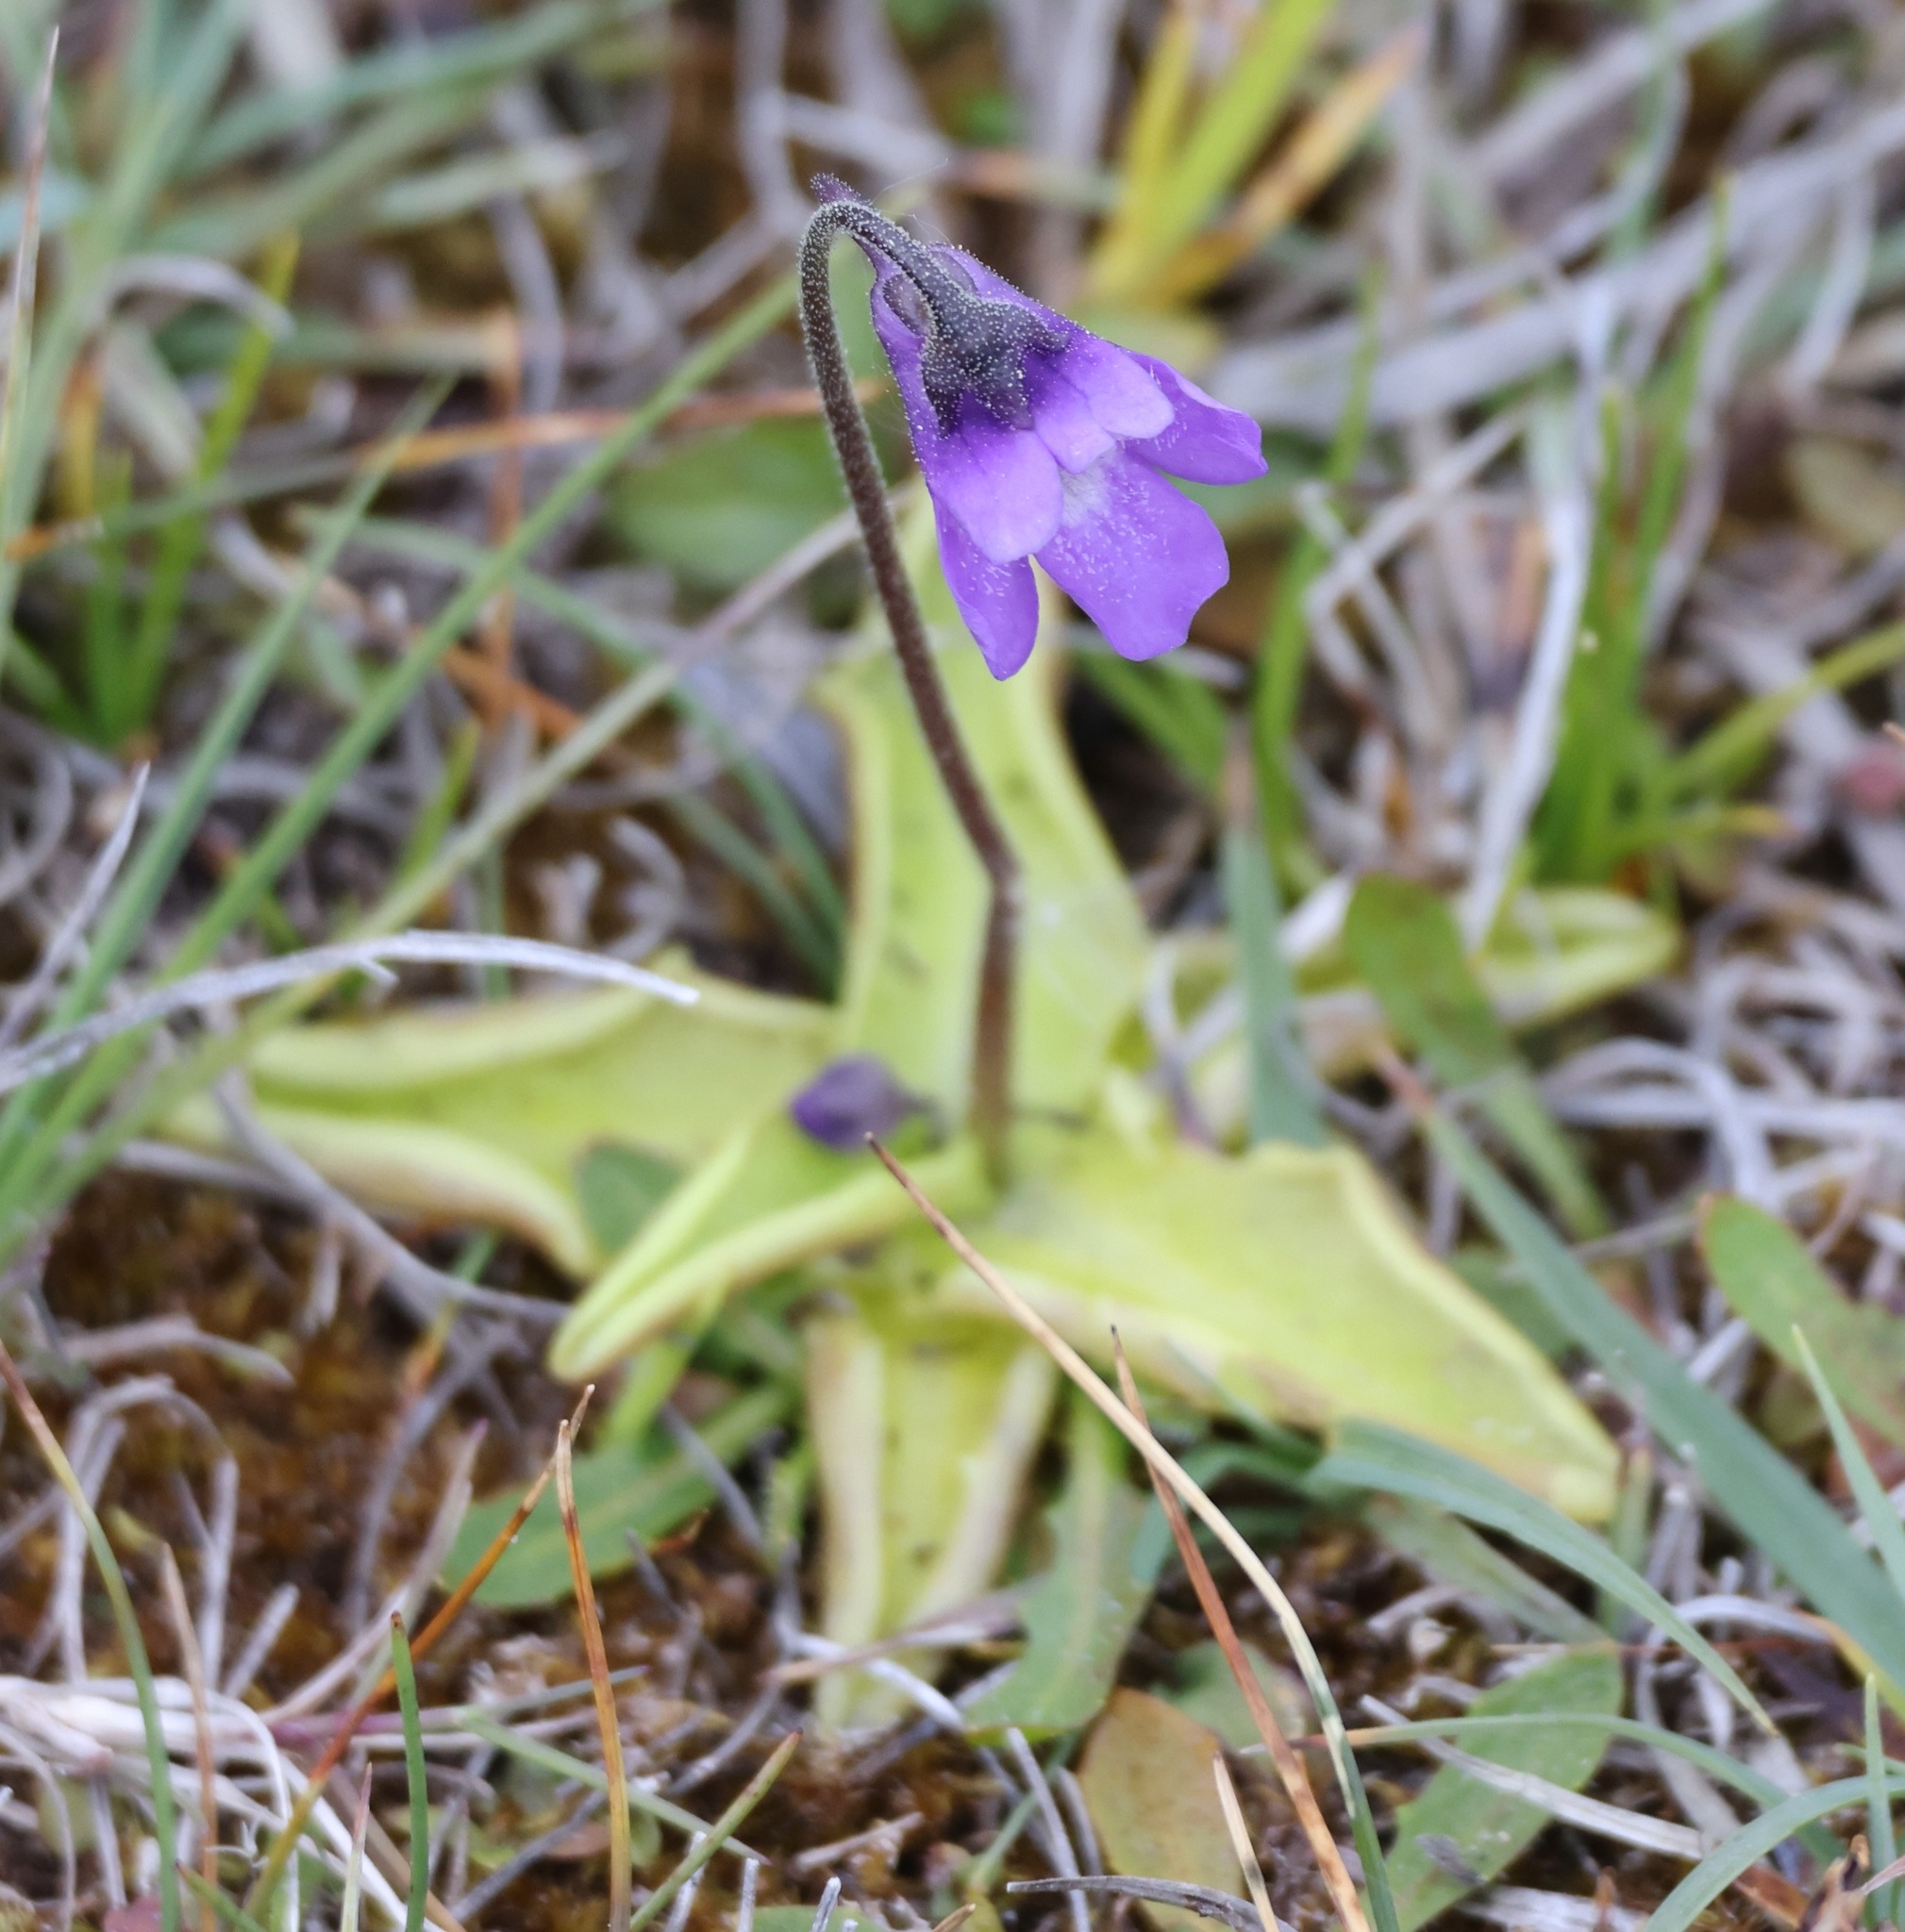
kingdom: Plantae
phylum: Tracheophyta
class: Magnoliopsida
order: Lamiales
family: Lentibulariaceae
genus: Pinguicula
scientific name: Pinguicula vulgaris
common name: Common butterwort
